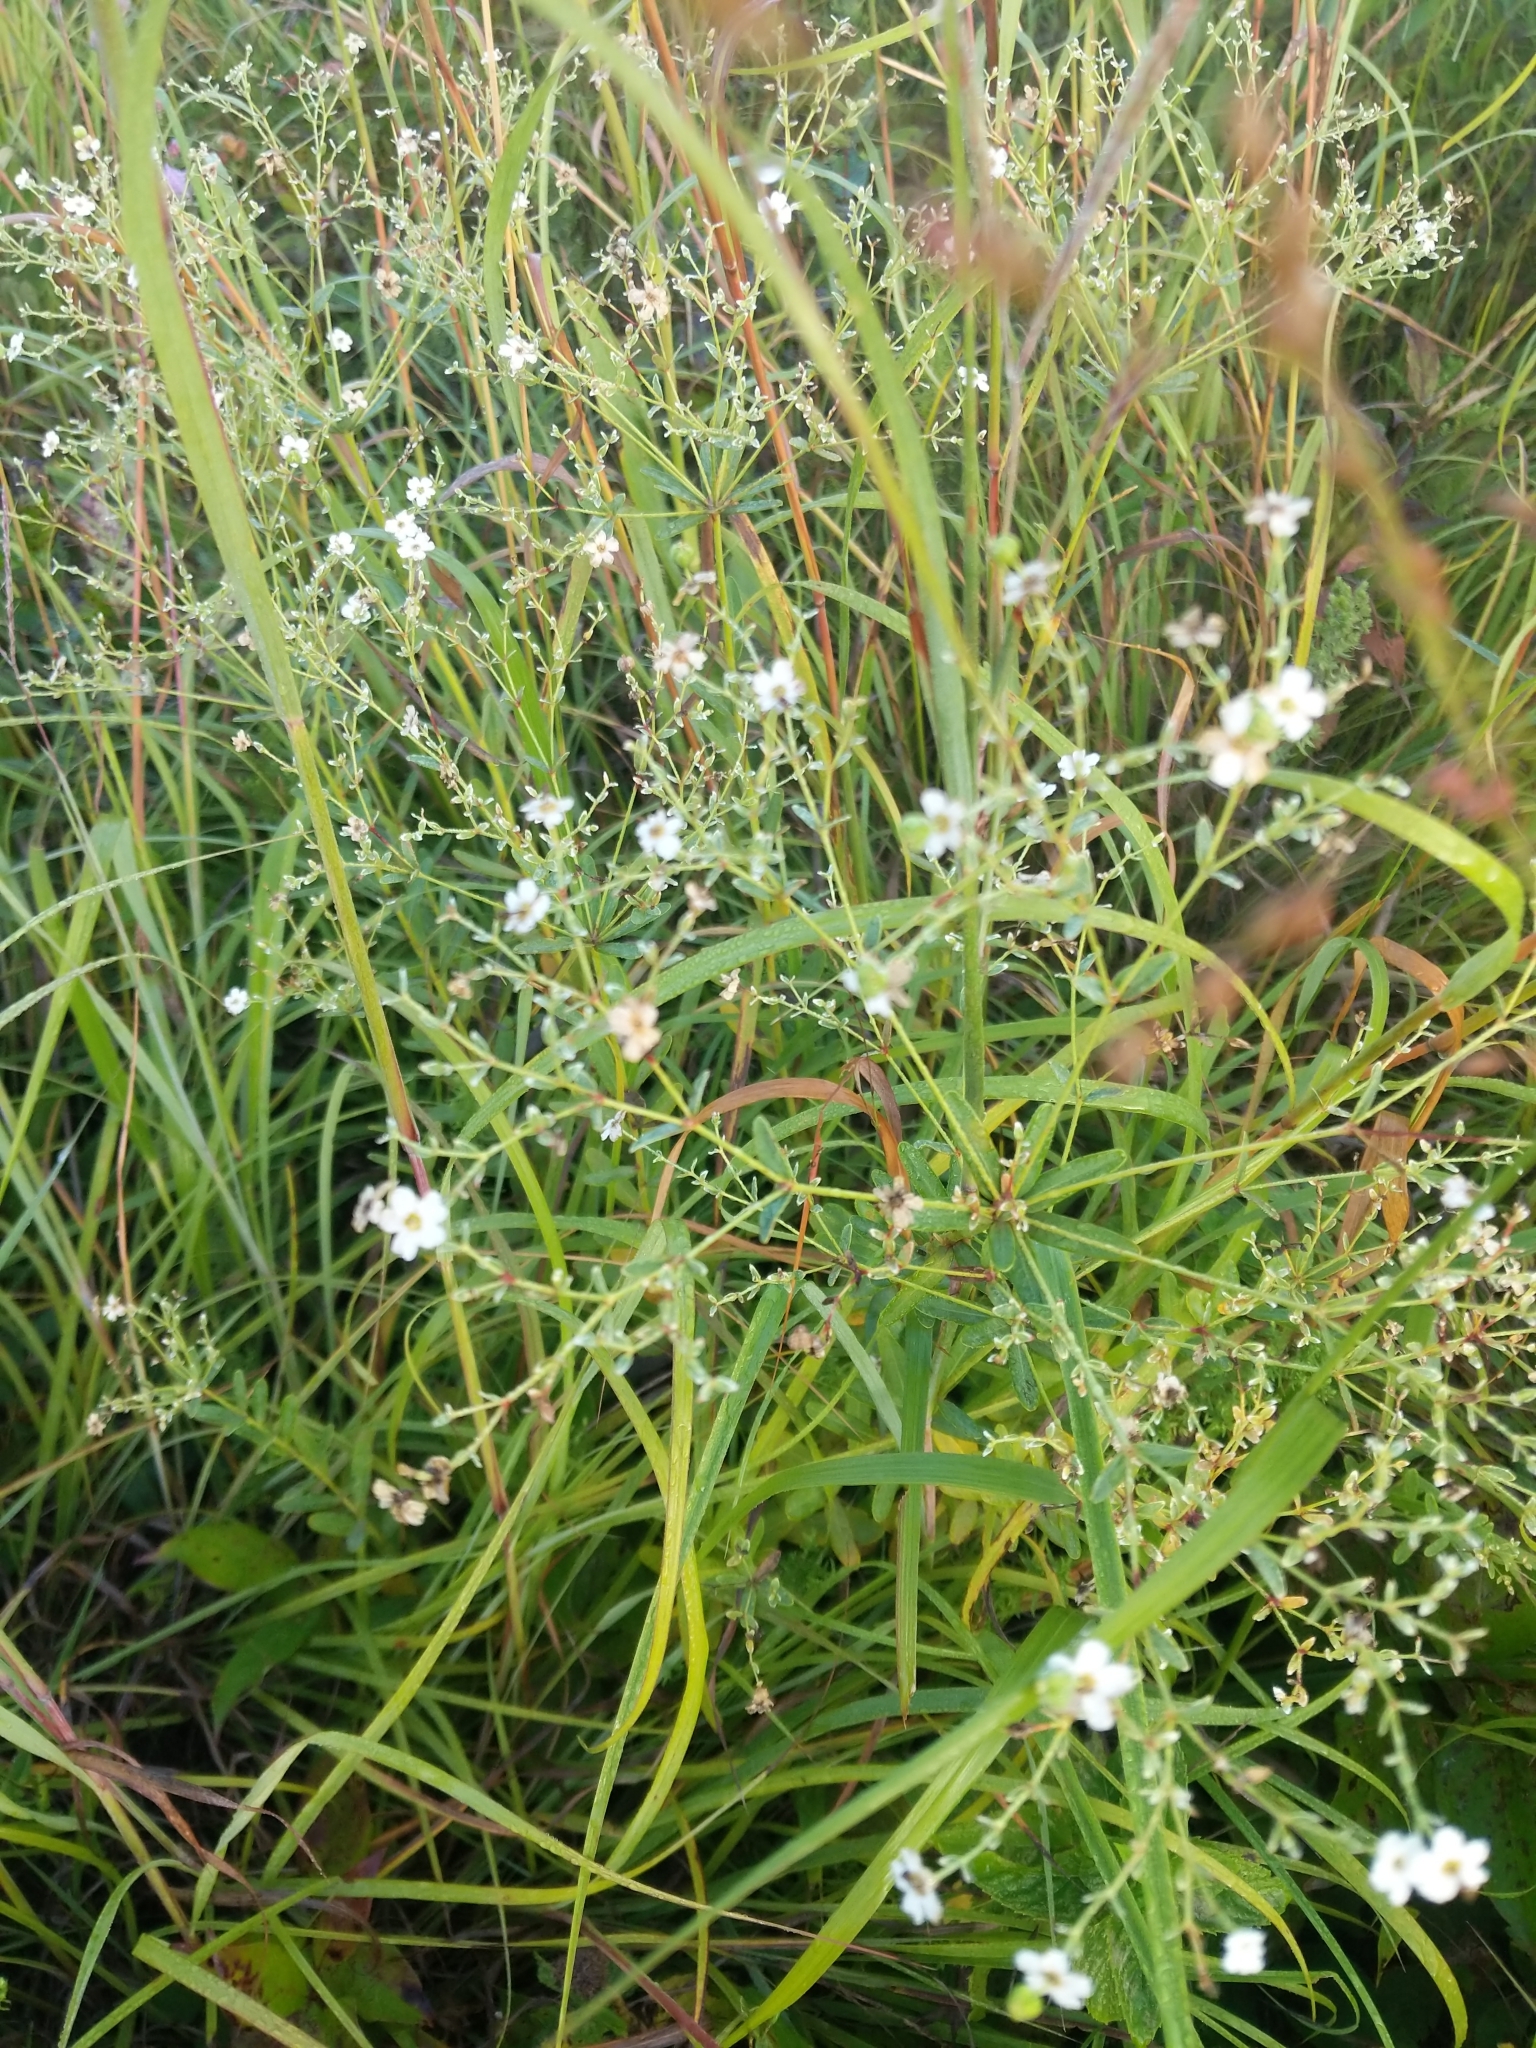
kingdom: Plantae
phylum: Tracheophyta
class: Magnoliopsida
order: Malpighiales
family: Euphorbiaceae
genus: Euphorbia
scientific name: Euphorbia corollata
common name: Flowering spurge
